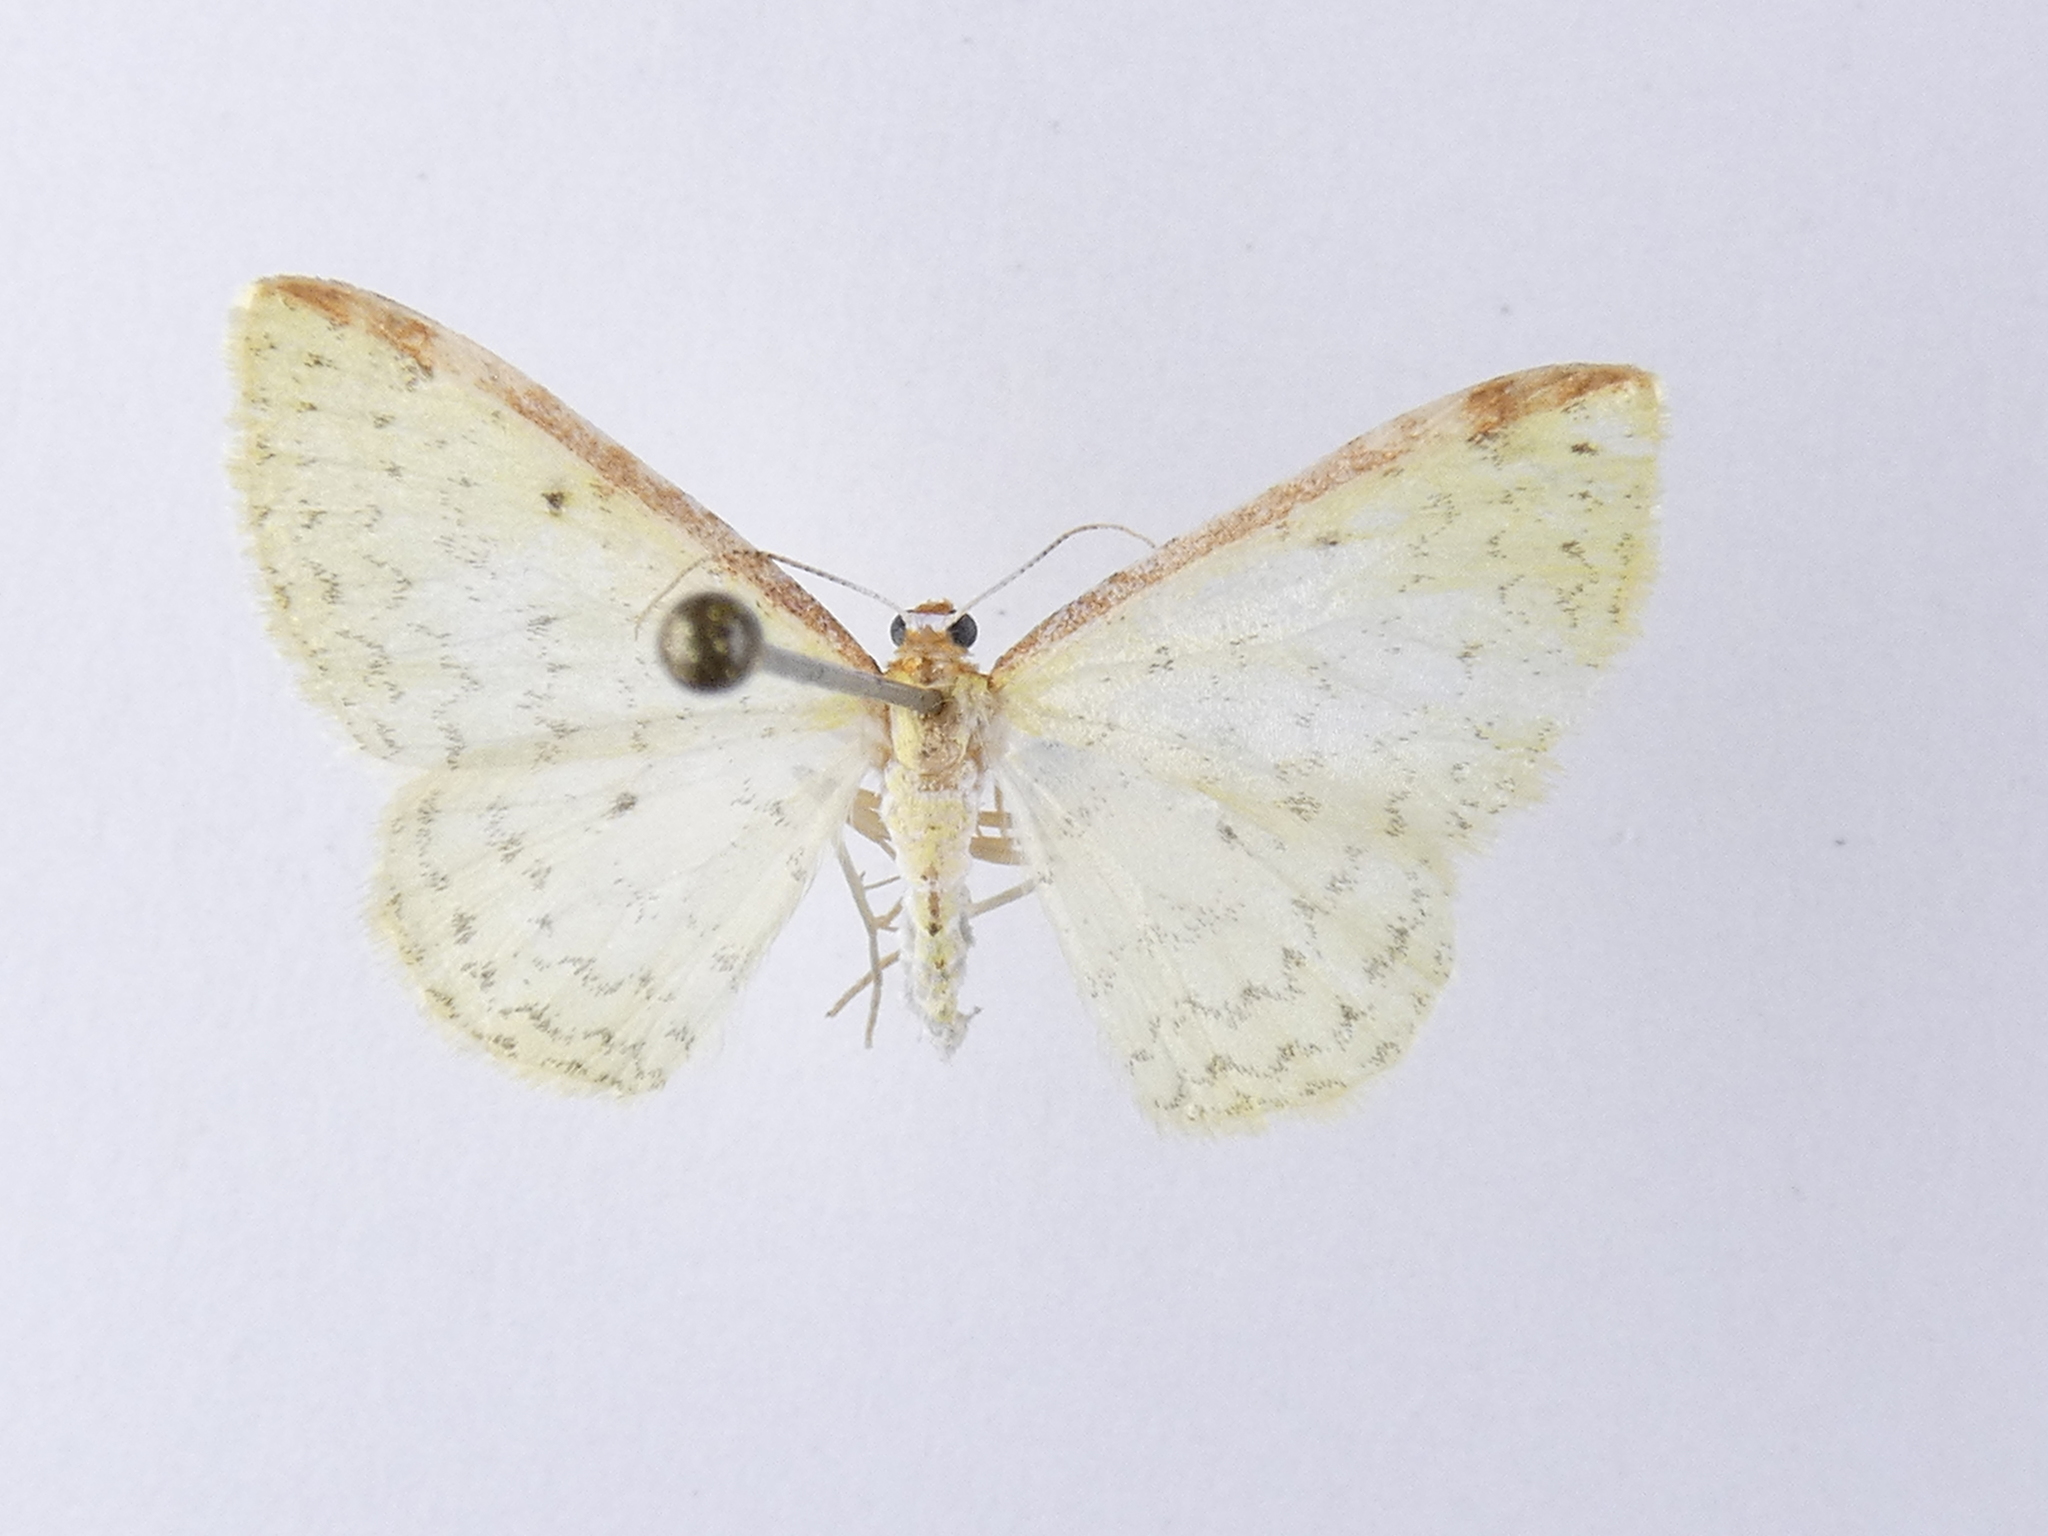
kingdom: Animalia
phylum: Arthropoda
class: Insecta
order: Lepidoptera
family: Geometridae
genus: Epiphryne
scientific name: Epiphryne undosata
